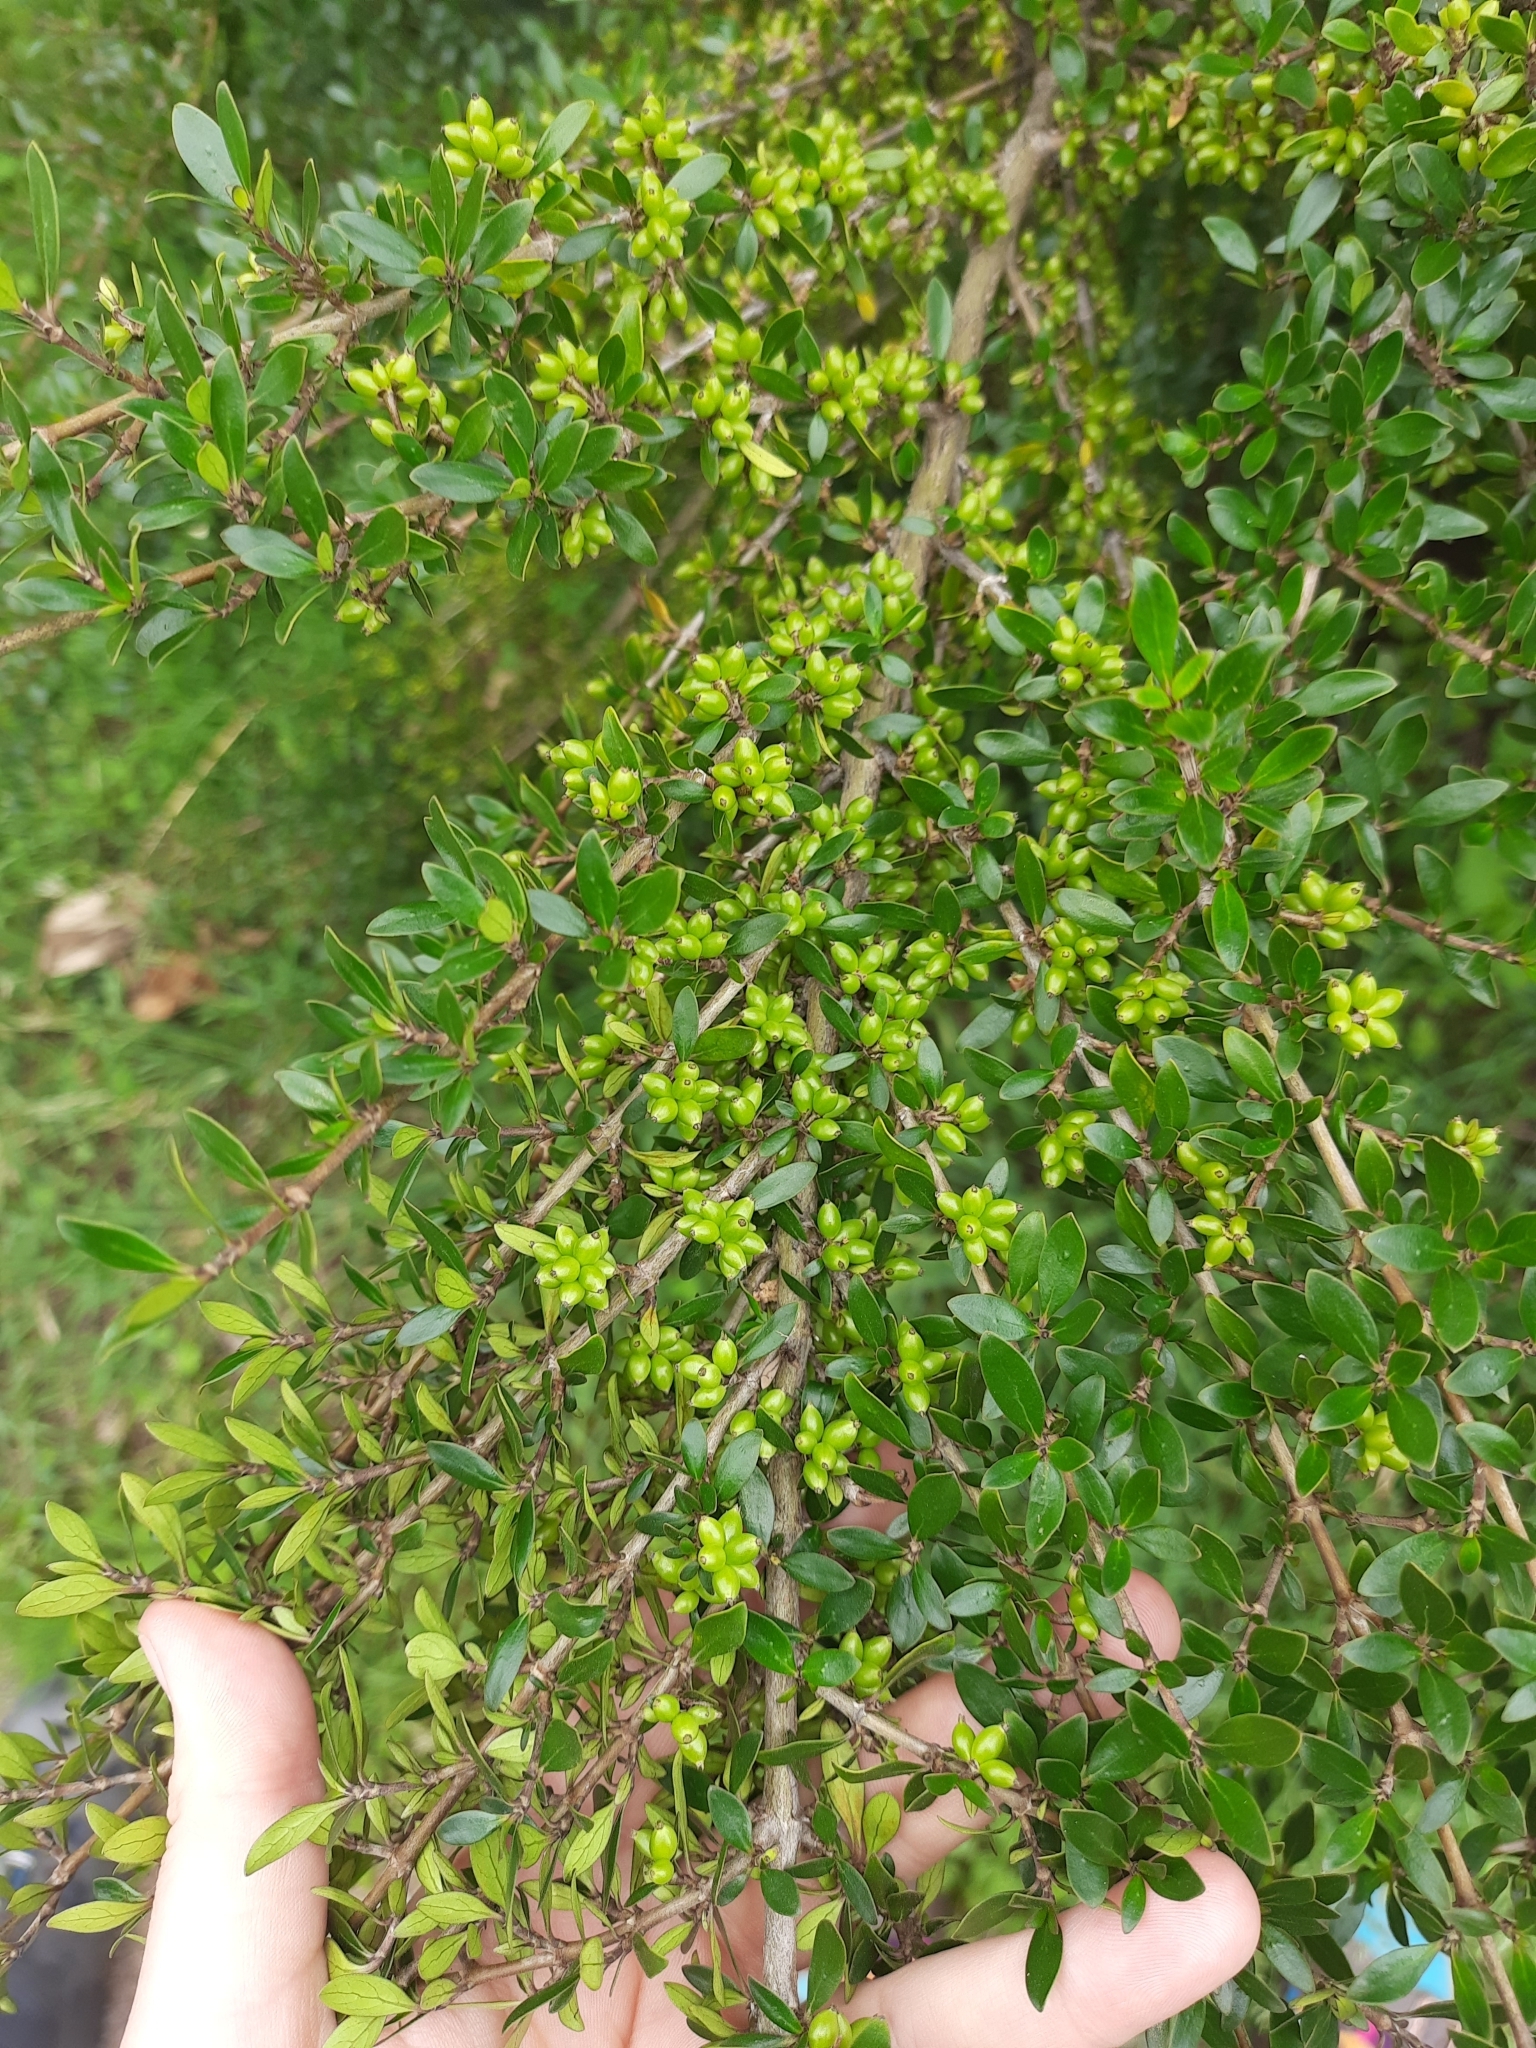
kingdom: Plantae
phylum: Tracheophyta
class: Magnoliopsida
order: Gentianales
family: Rubiaceae
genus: Coprosma
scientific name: Coprosma cunninghamii
